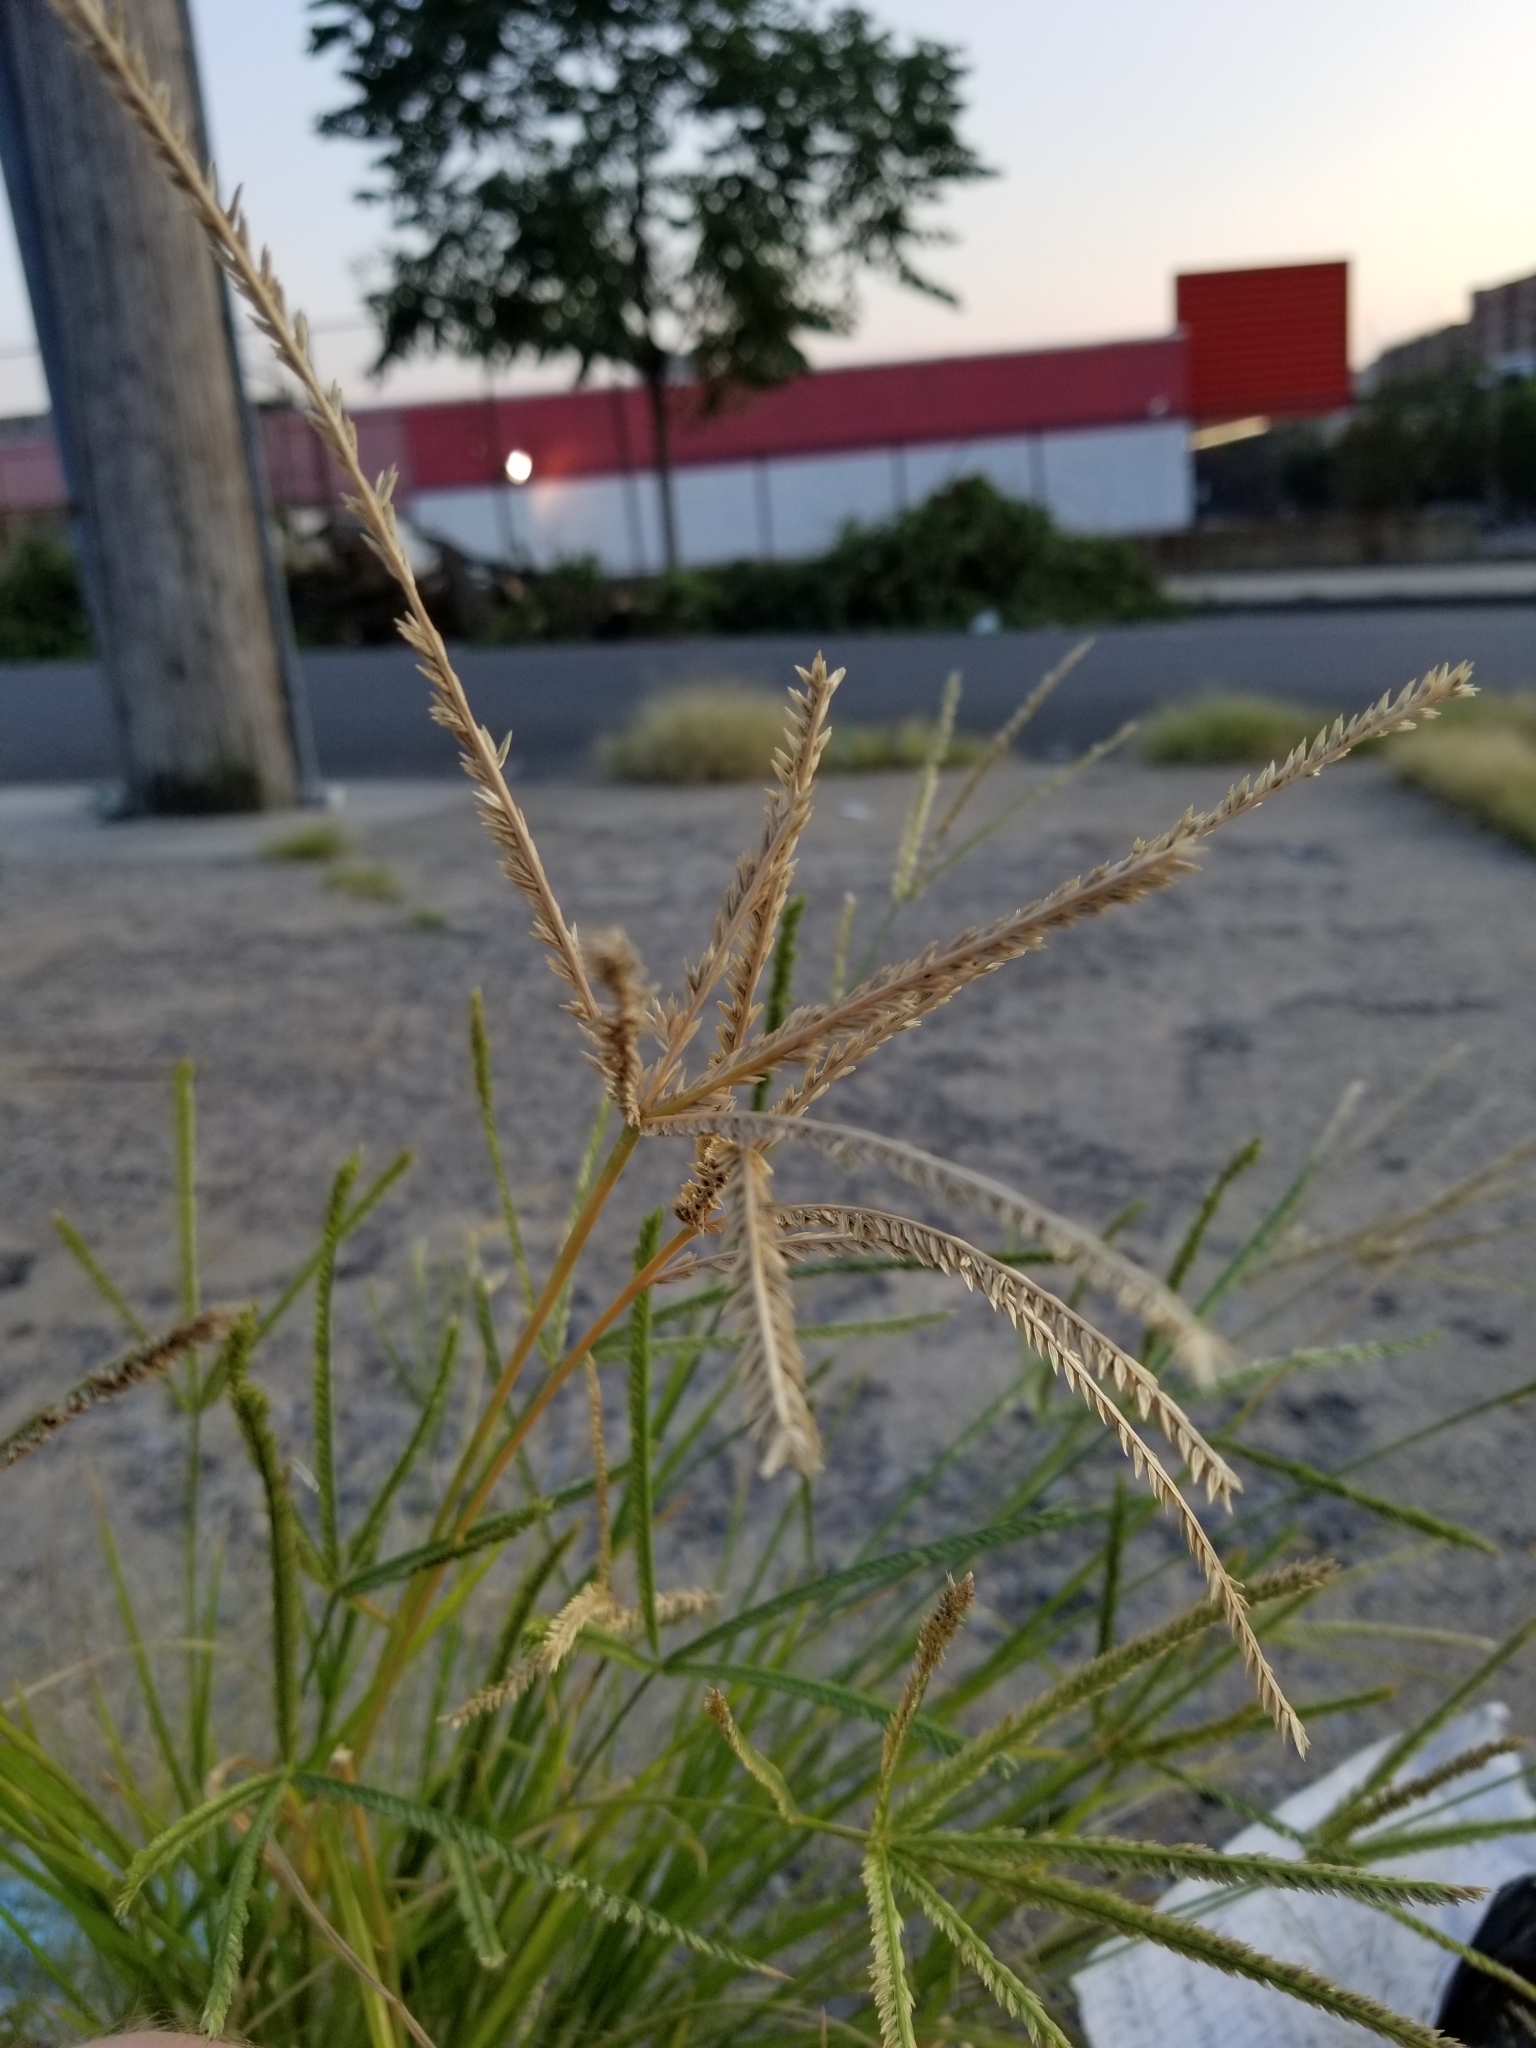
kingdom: Plantae
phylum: Tracheophyta
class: Liliopsida
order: Poales
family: Poaceae
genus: Eleusine
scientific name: Eleusine indica
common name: Yard-grass
